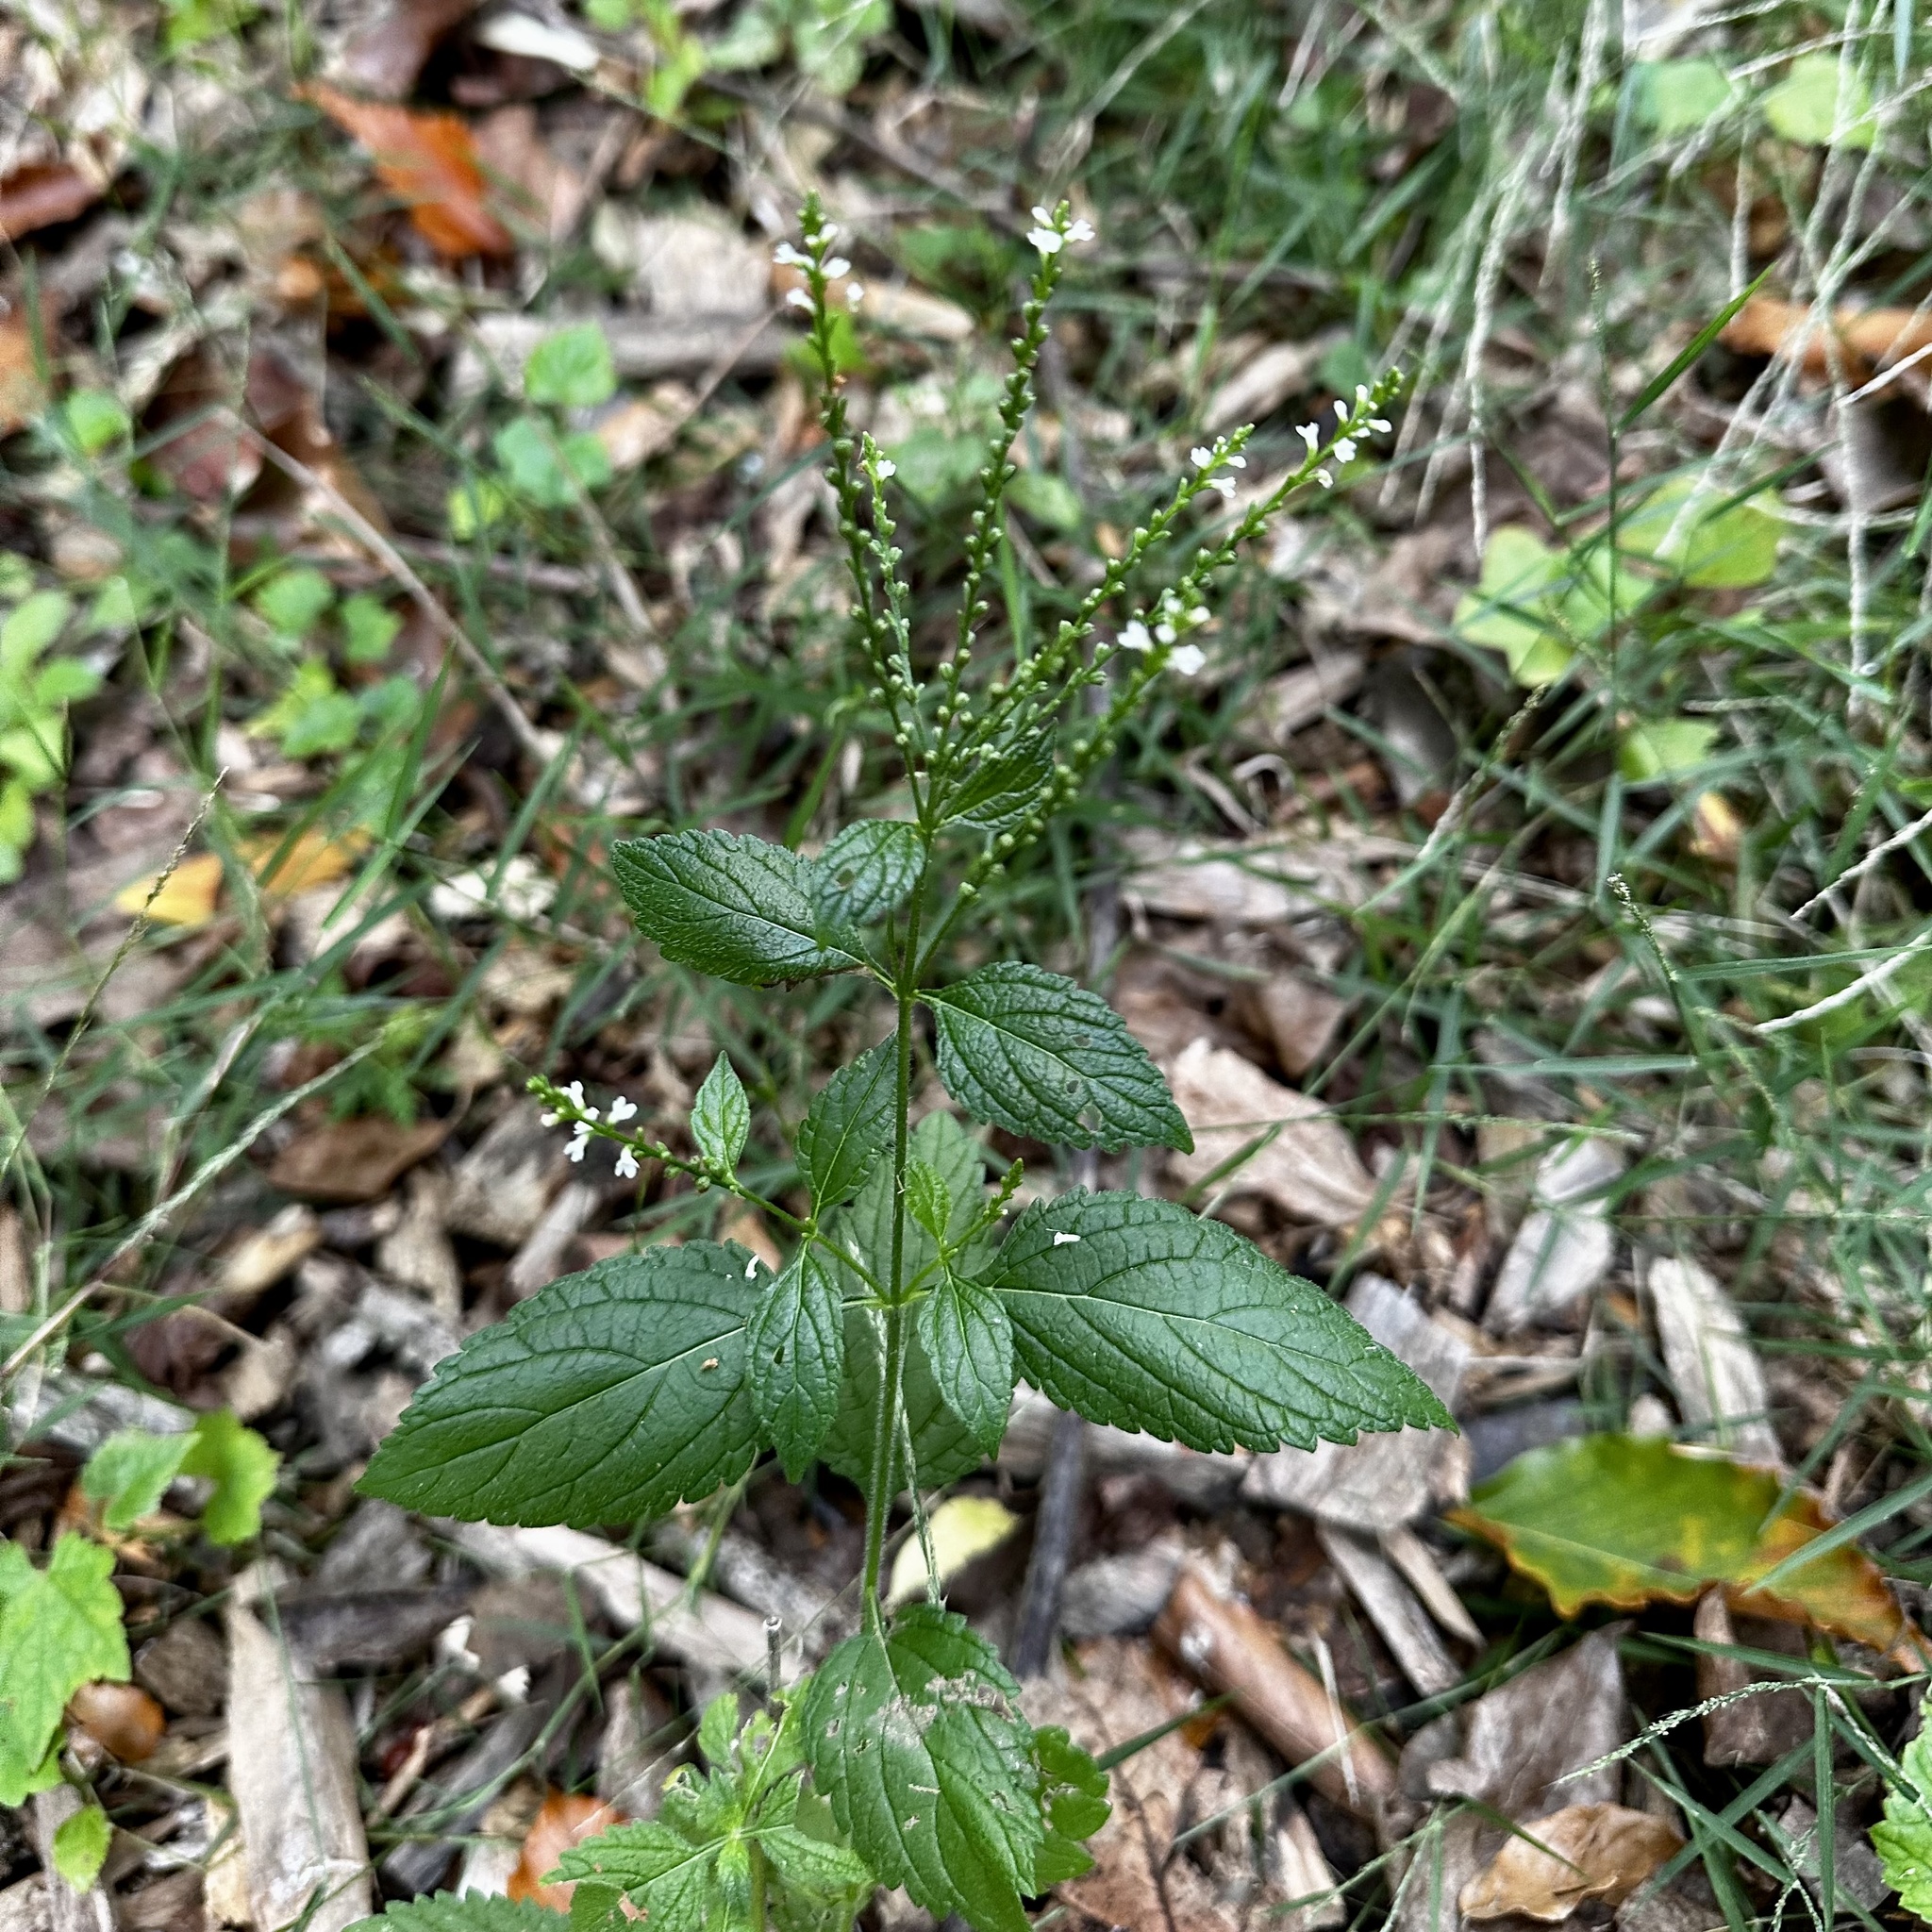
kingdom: Plantae
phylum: Tracheophyta
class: Magnoliopsida
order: Lamiales
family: Verbenaceae
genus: Verbena
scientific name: Verbena urticifolia
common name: Nettle-leaved vervain
